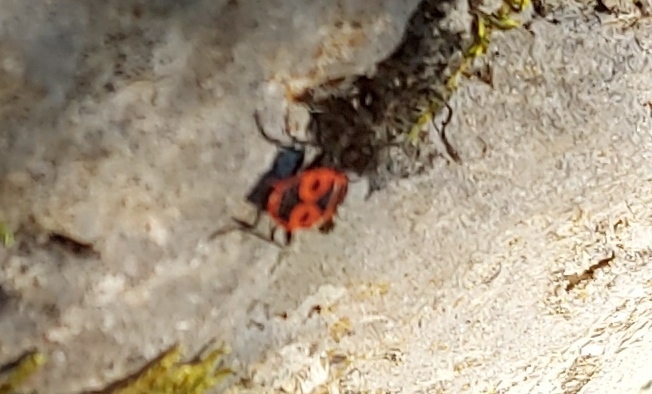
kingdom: Animalia
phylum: Arthropoda
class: Insecta
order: Hemiptera
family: Pyrrhocoridae
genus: Pyrrhocoris
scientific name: Pyrrhocoris apterus
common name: Firebug
